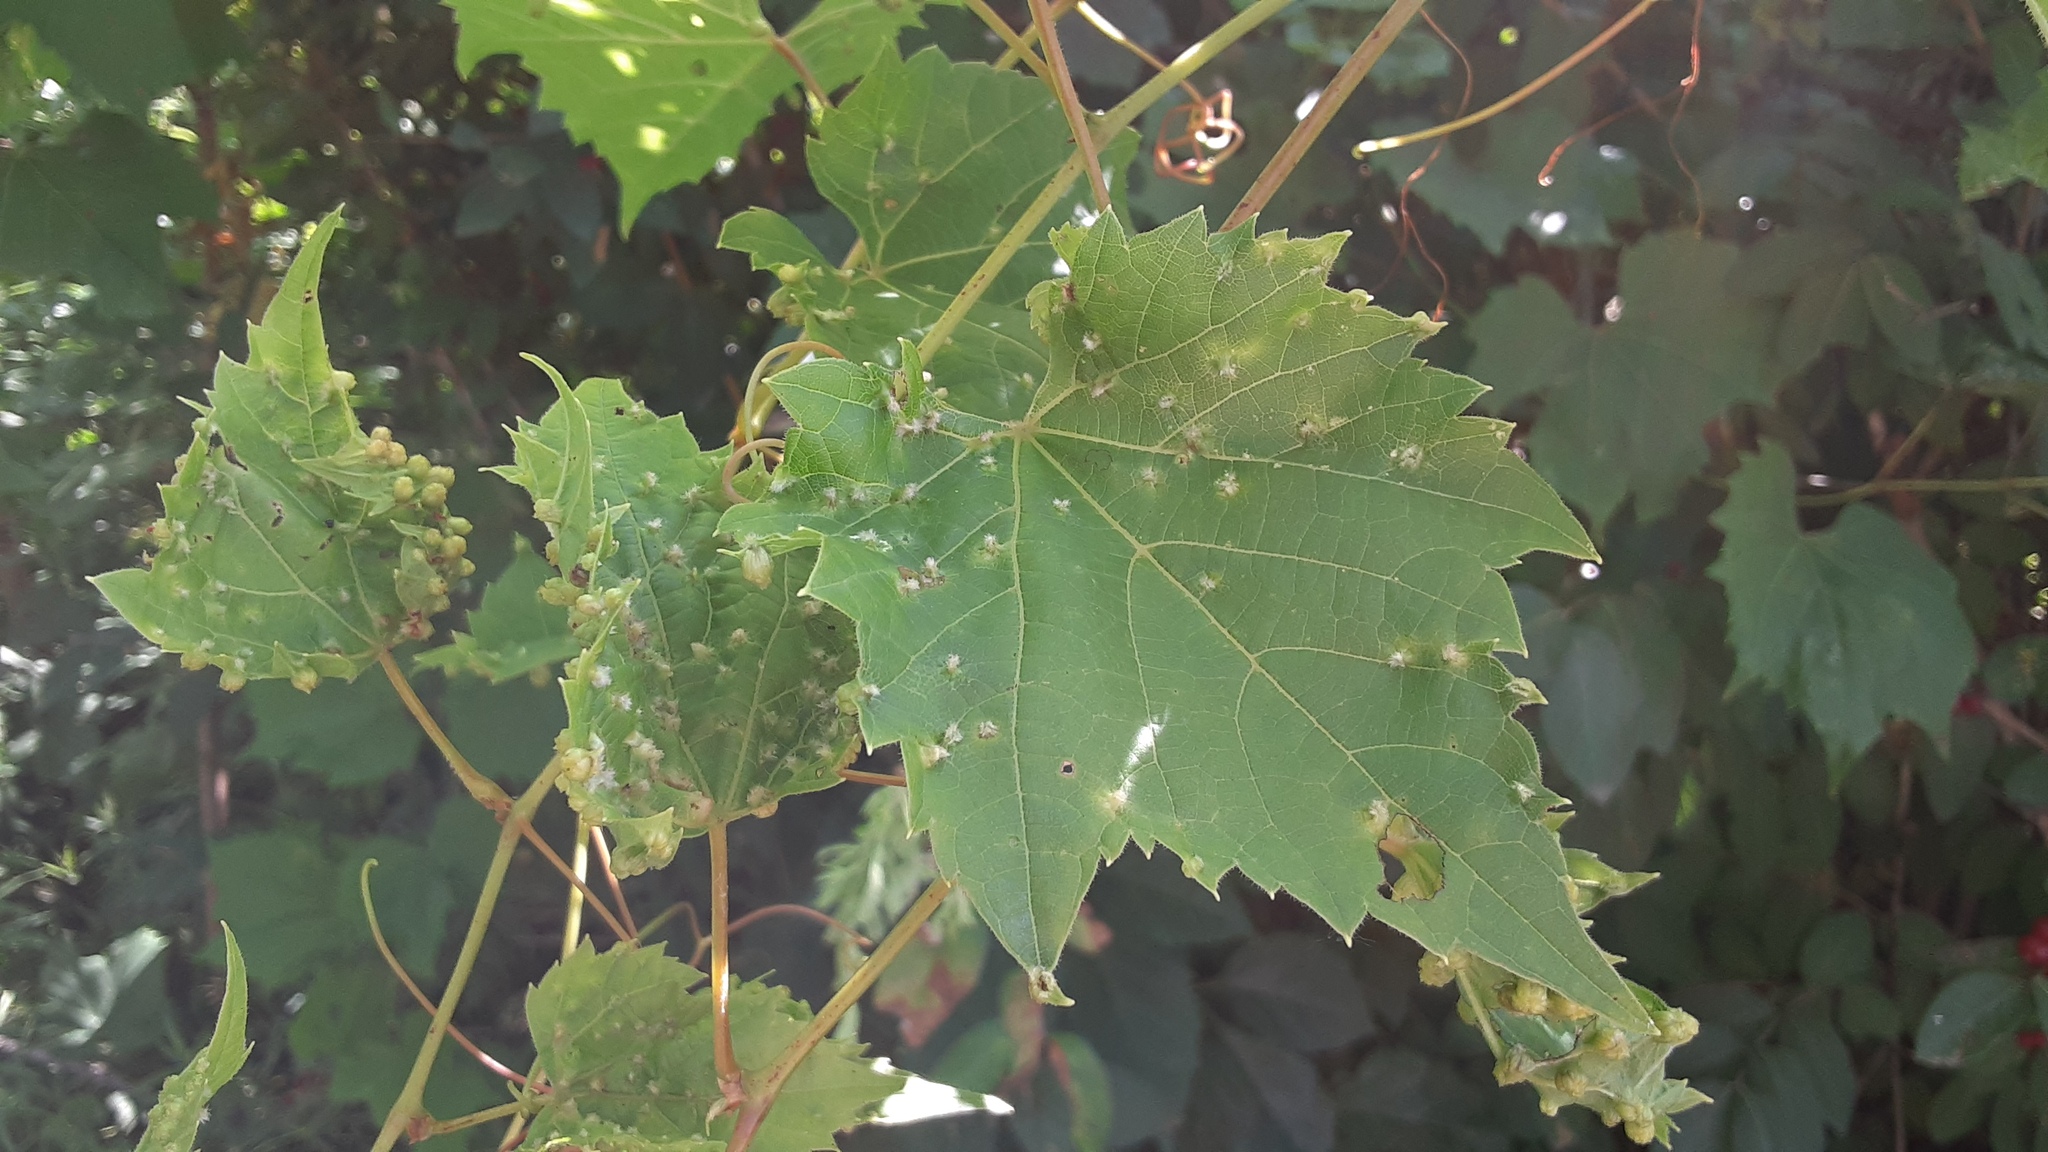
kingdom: Animalia
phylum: Arthropoda
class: Insecta
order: Hemiptera
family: Phylloxeridae
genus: Daktulosphaira
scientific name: Daktulosphaira vitifoliae
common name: Grape phylloxera
